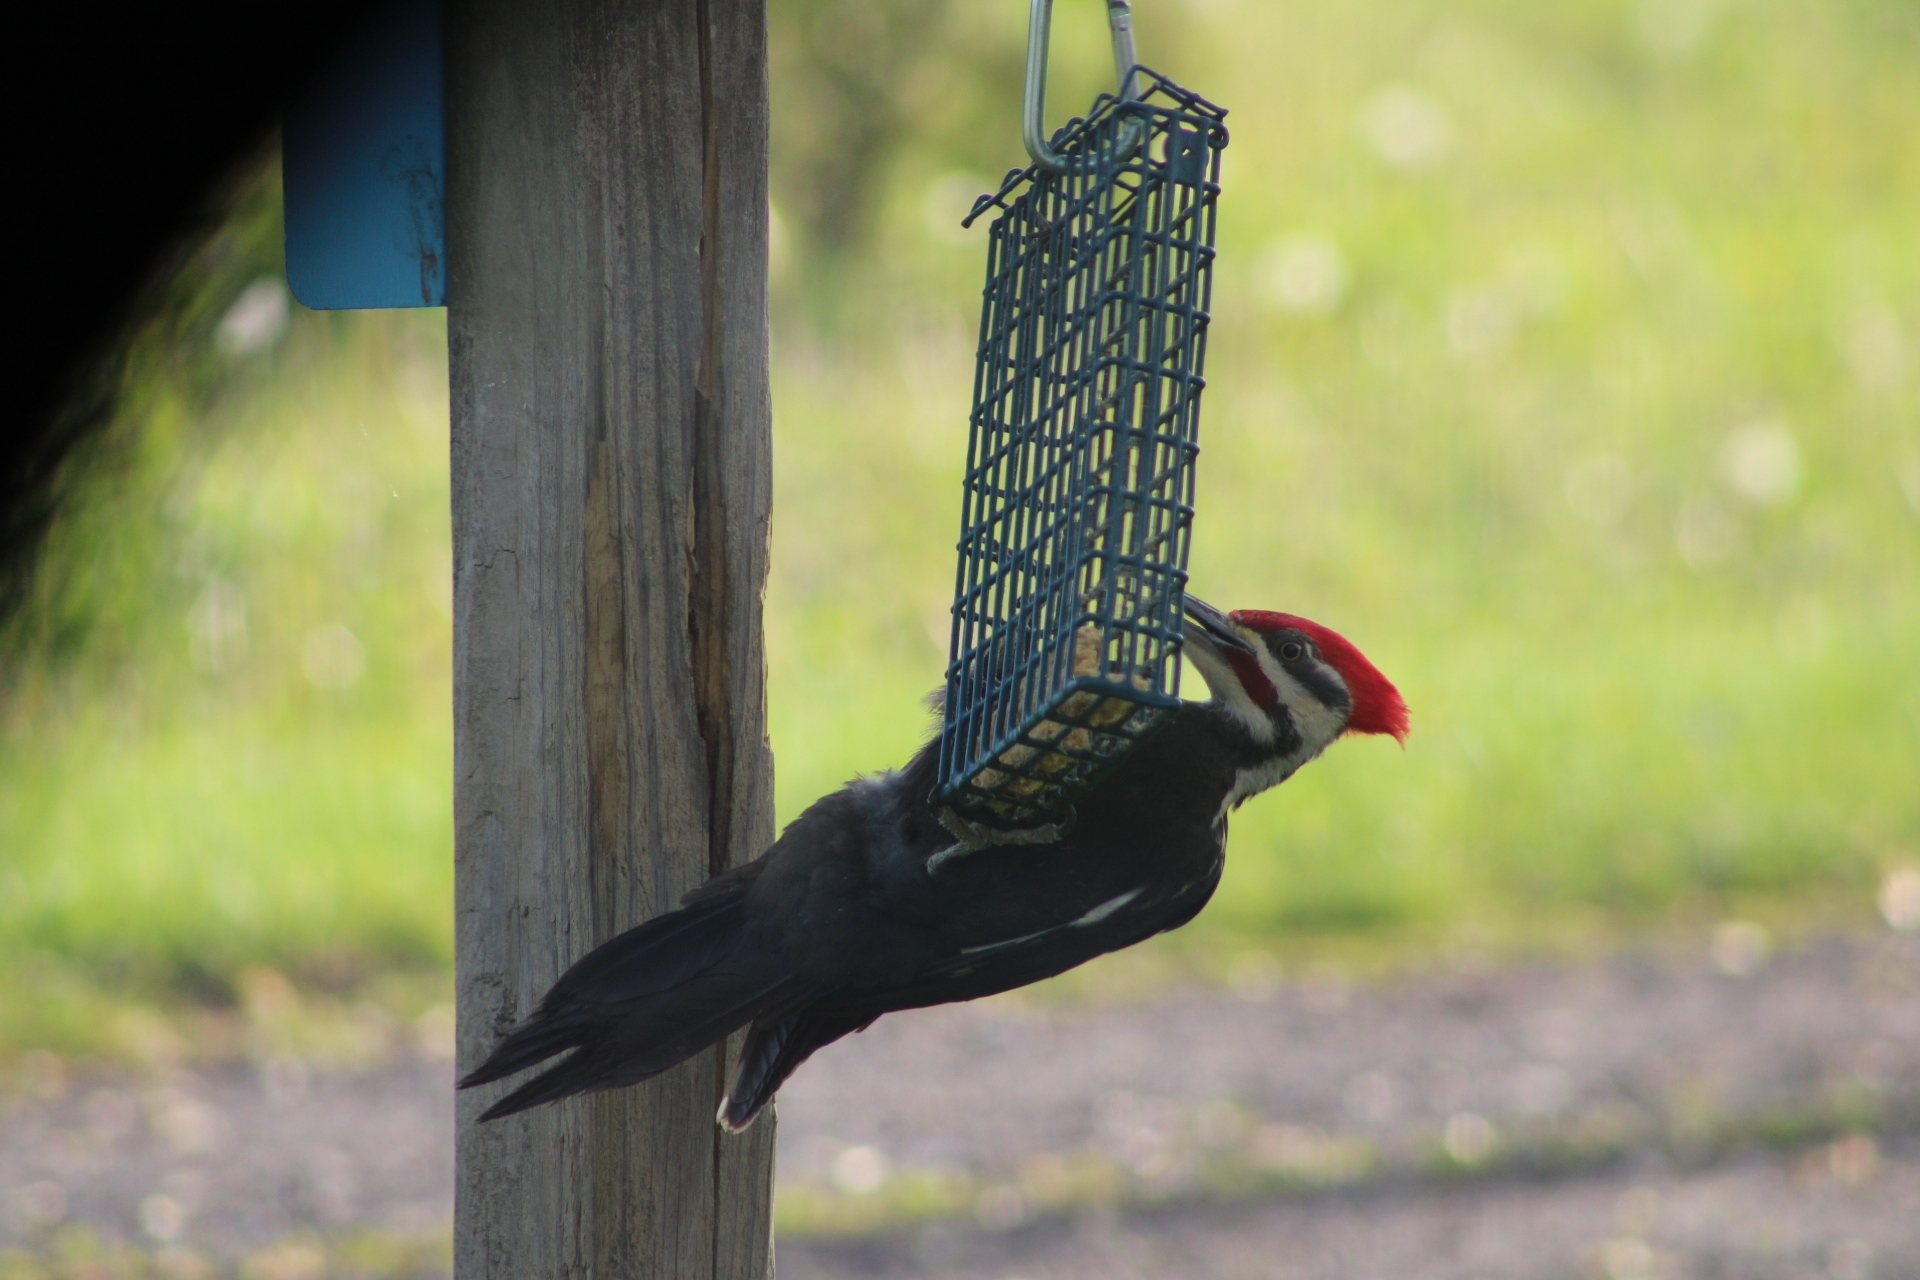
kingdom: Animalia
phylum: Chordata
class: Aves
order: Piciformes
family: Picidae
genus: Dryocopus
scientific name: Dryocopus pileatus
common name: Pileated woodpecker
